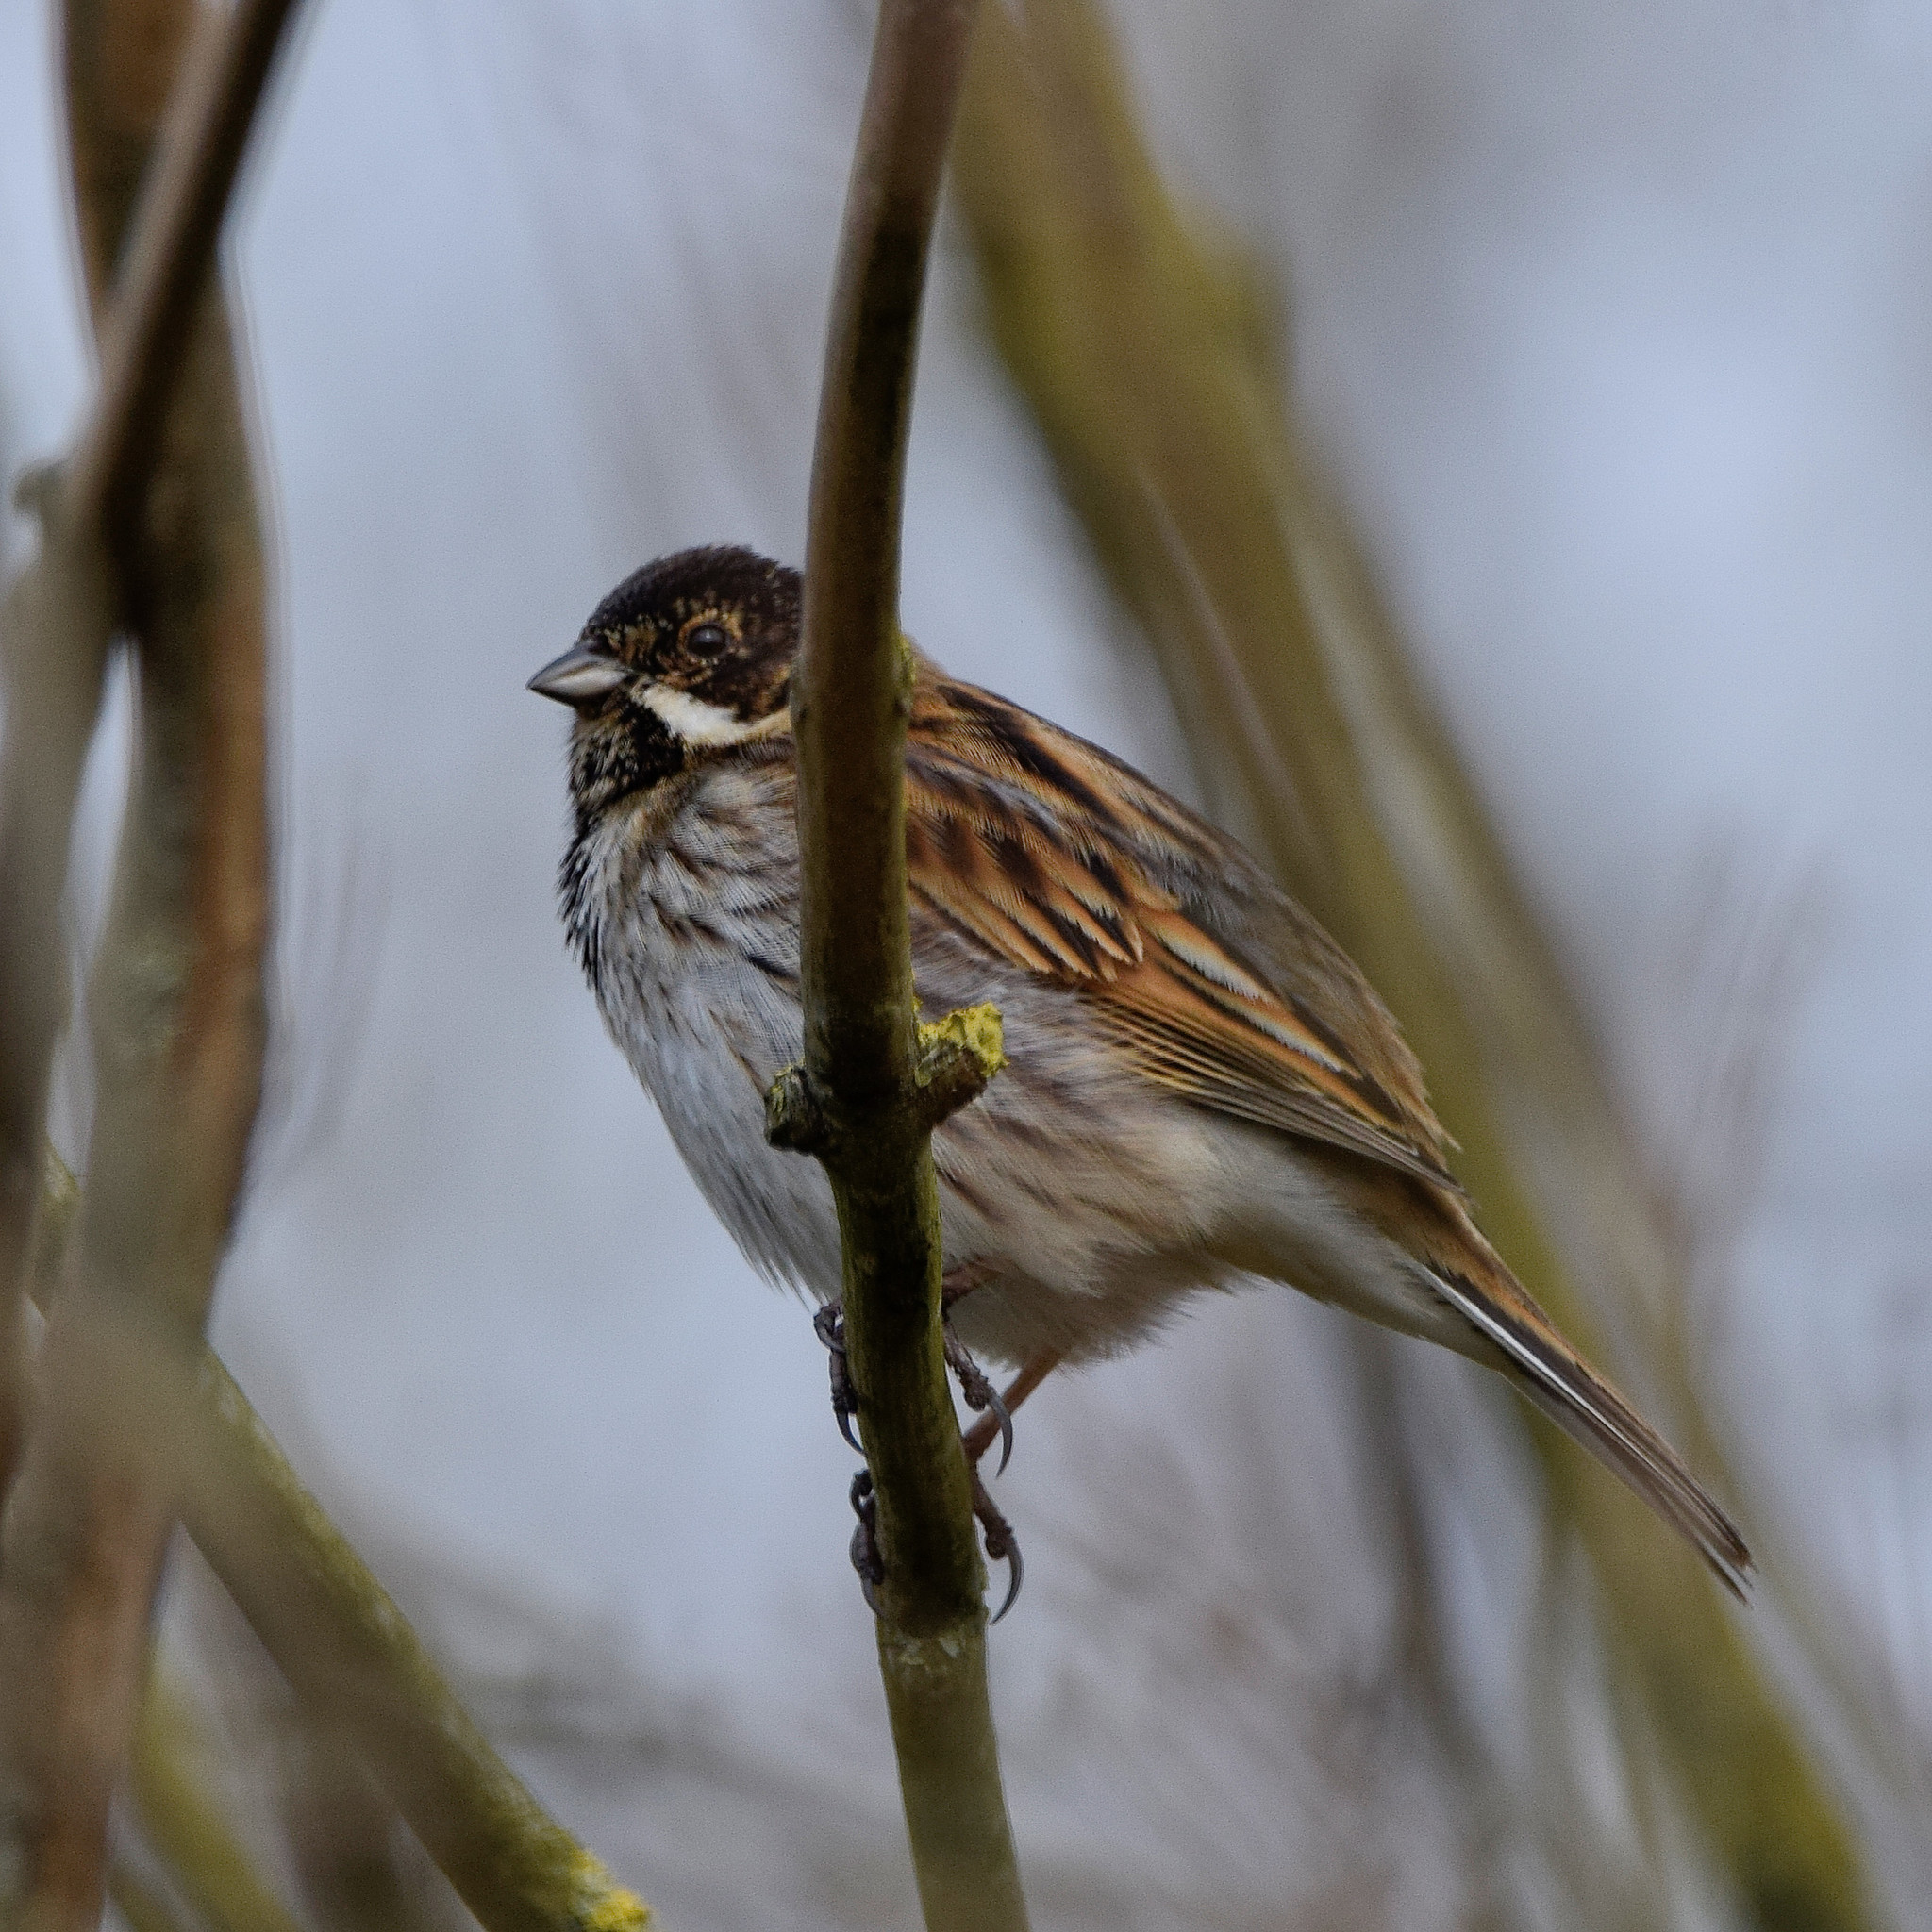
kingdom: Animalia
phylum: Chordata
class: Aves
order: Passeriformes
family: Emberizidae
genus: Emberiza
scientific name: Emberiza schoeniclus
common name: Reed bunting
